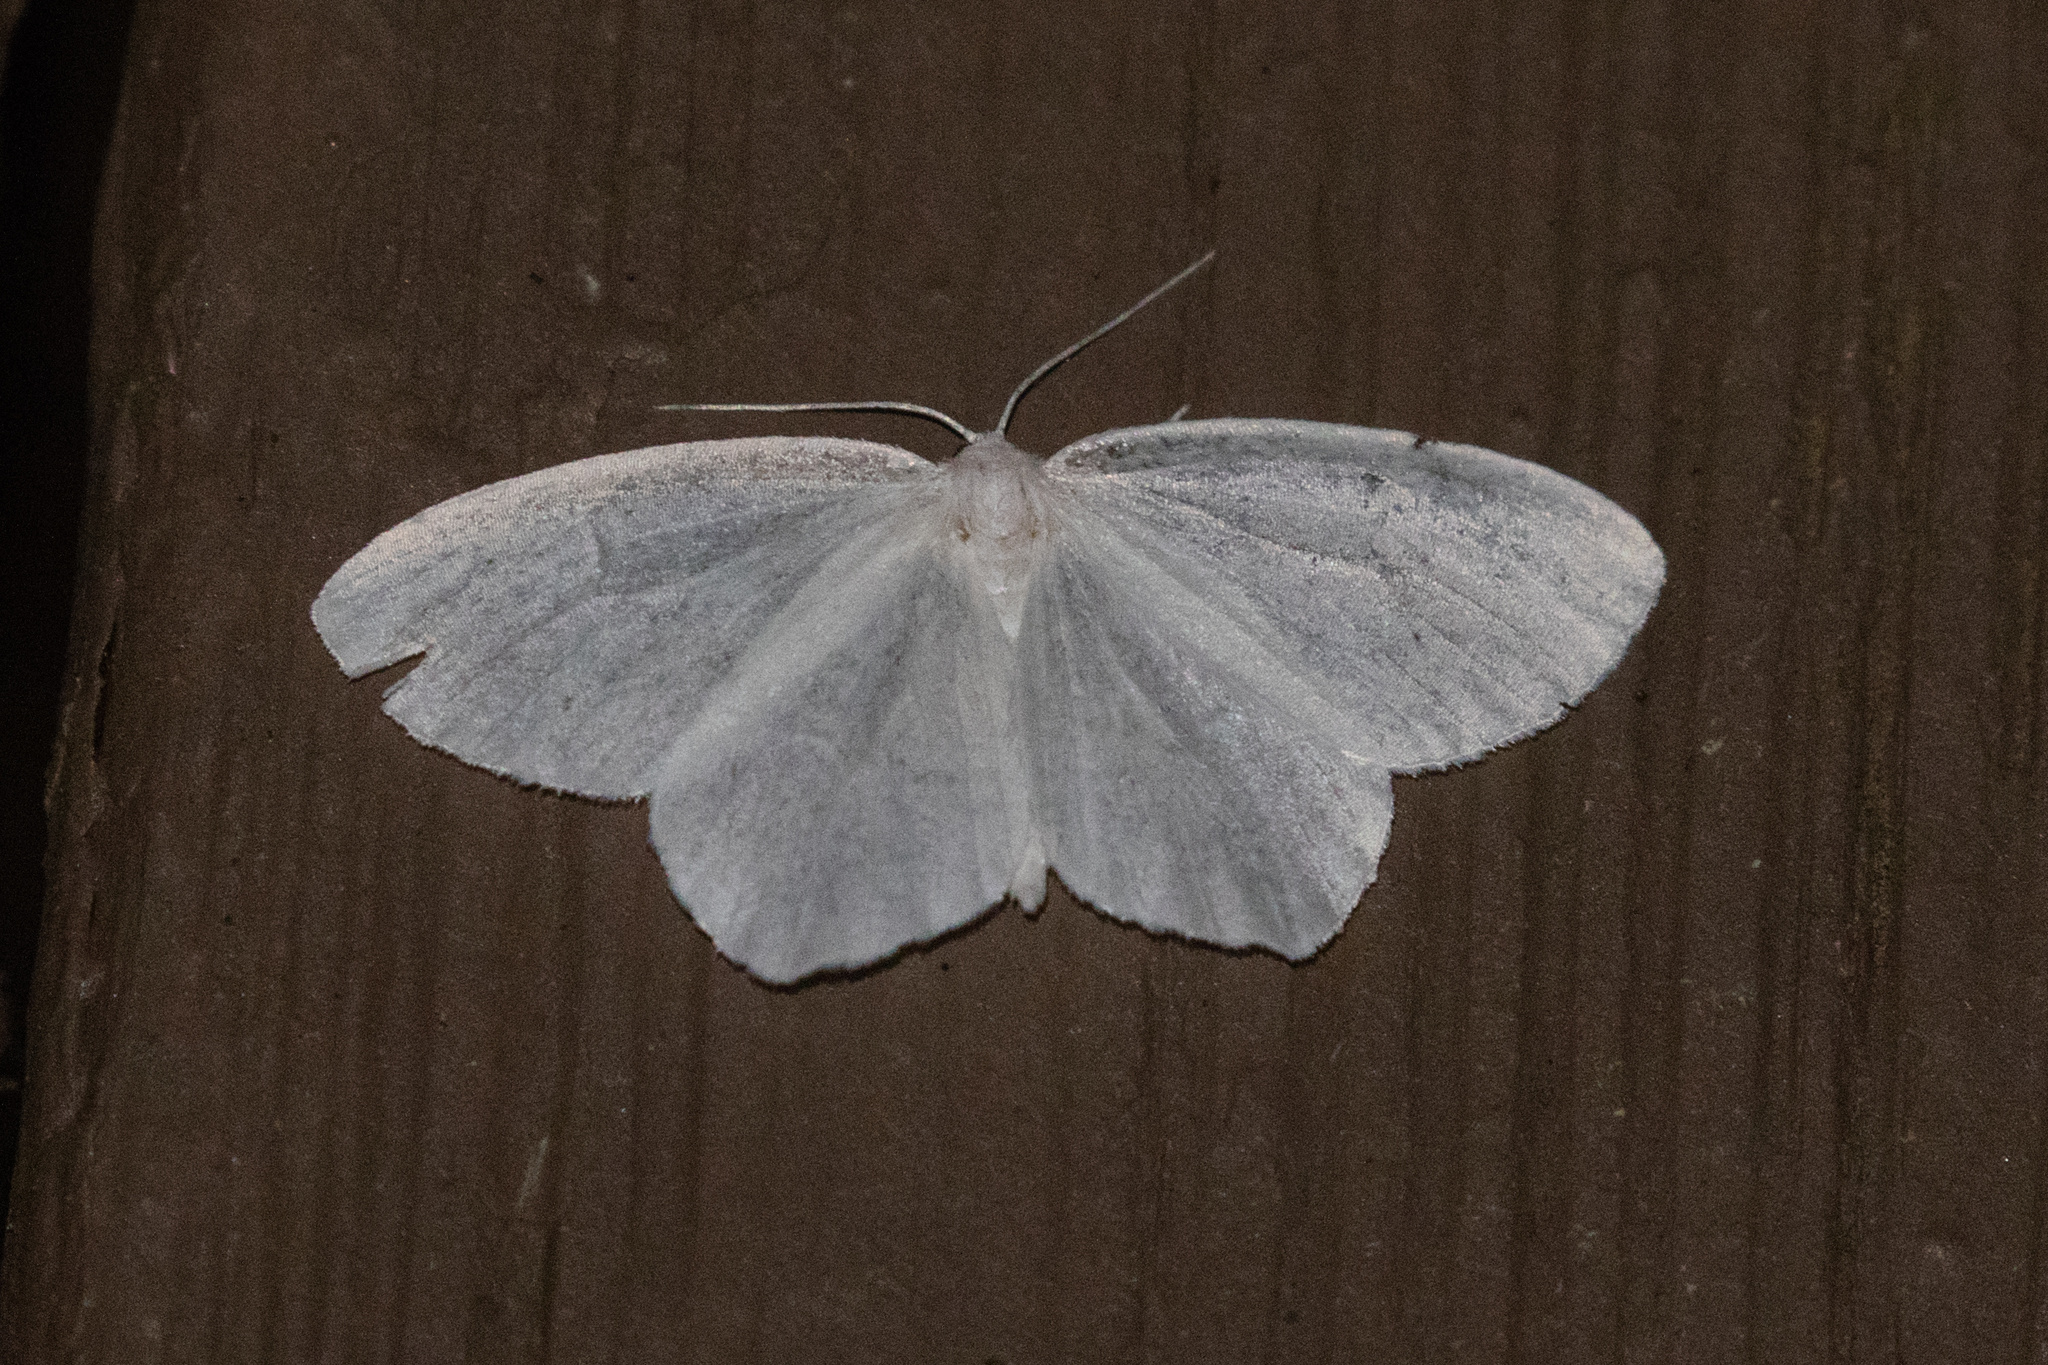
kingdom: Animalia
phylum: Arthropoda
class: Insecta
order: Lepidoptera
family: Geometridae
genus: Eugonobapta
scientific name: Eugonobapta nivosaria
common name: Snowy geometer
